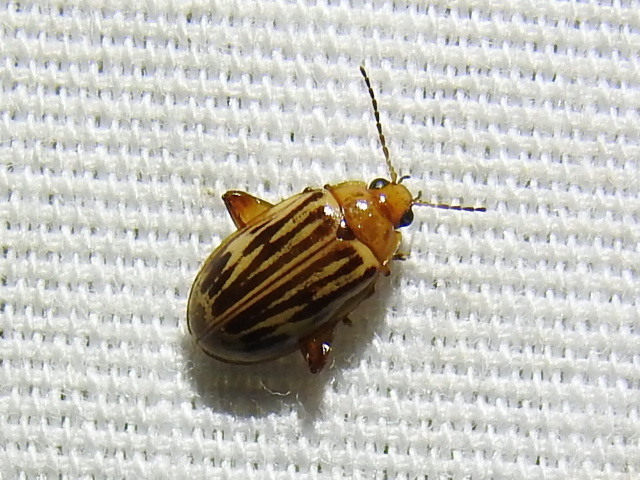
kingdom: Animalia
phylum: Arthropoda
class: Insecta
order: Coleoptera
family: Scirtidae
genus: Ora
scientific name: Ora troberti
